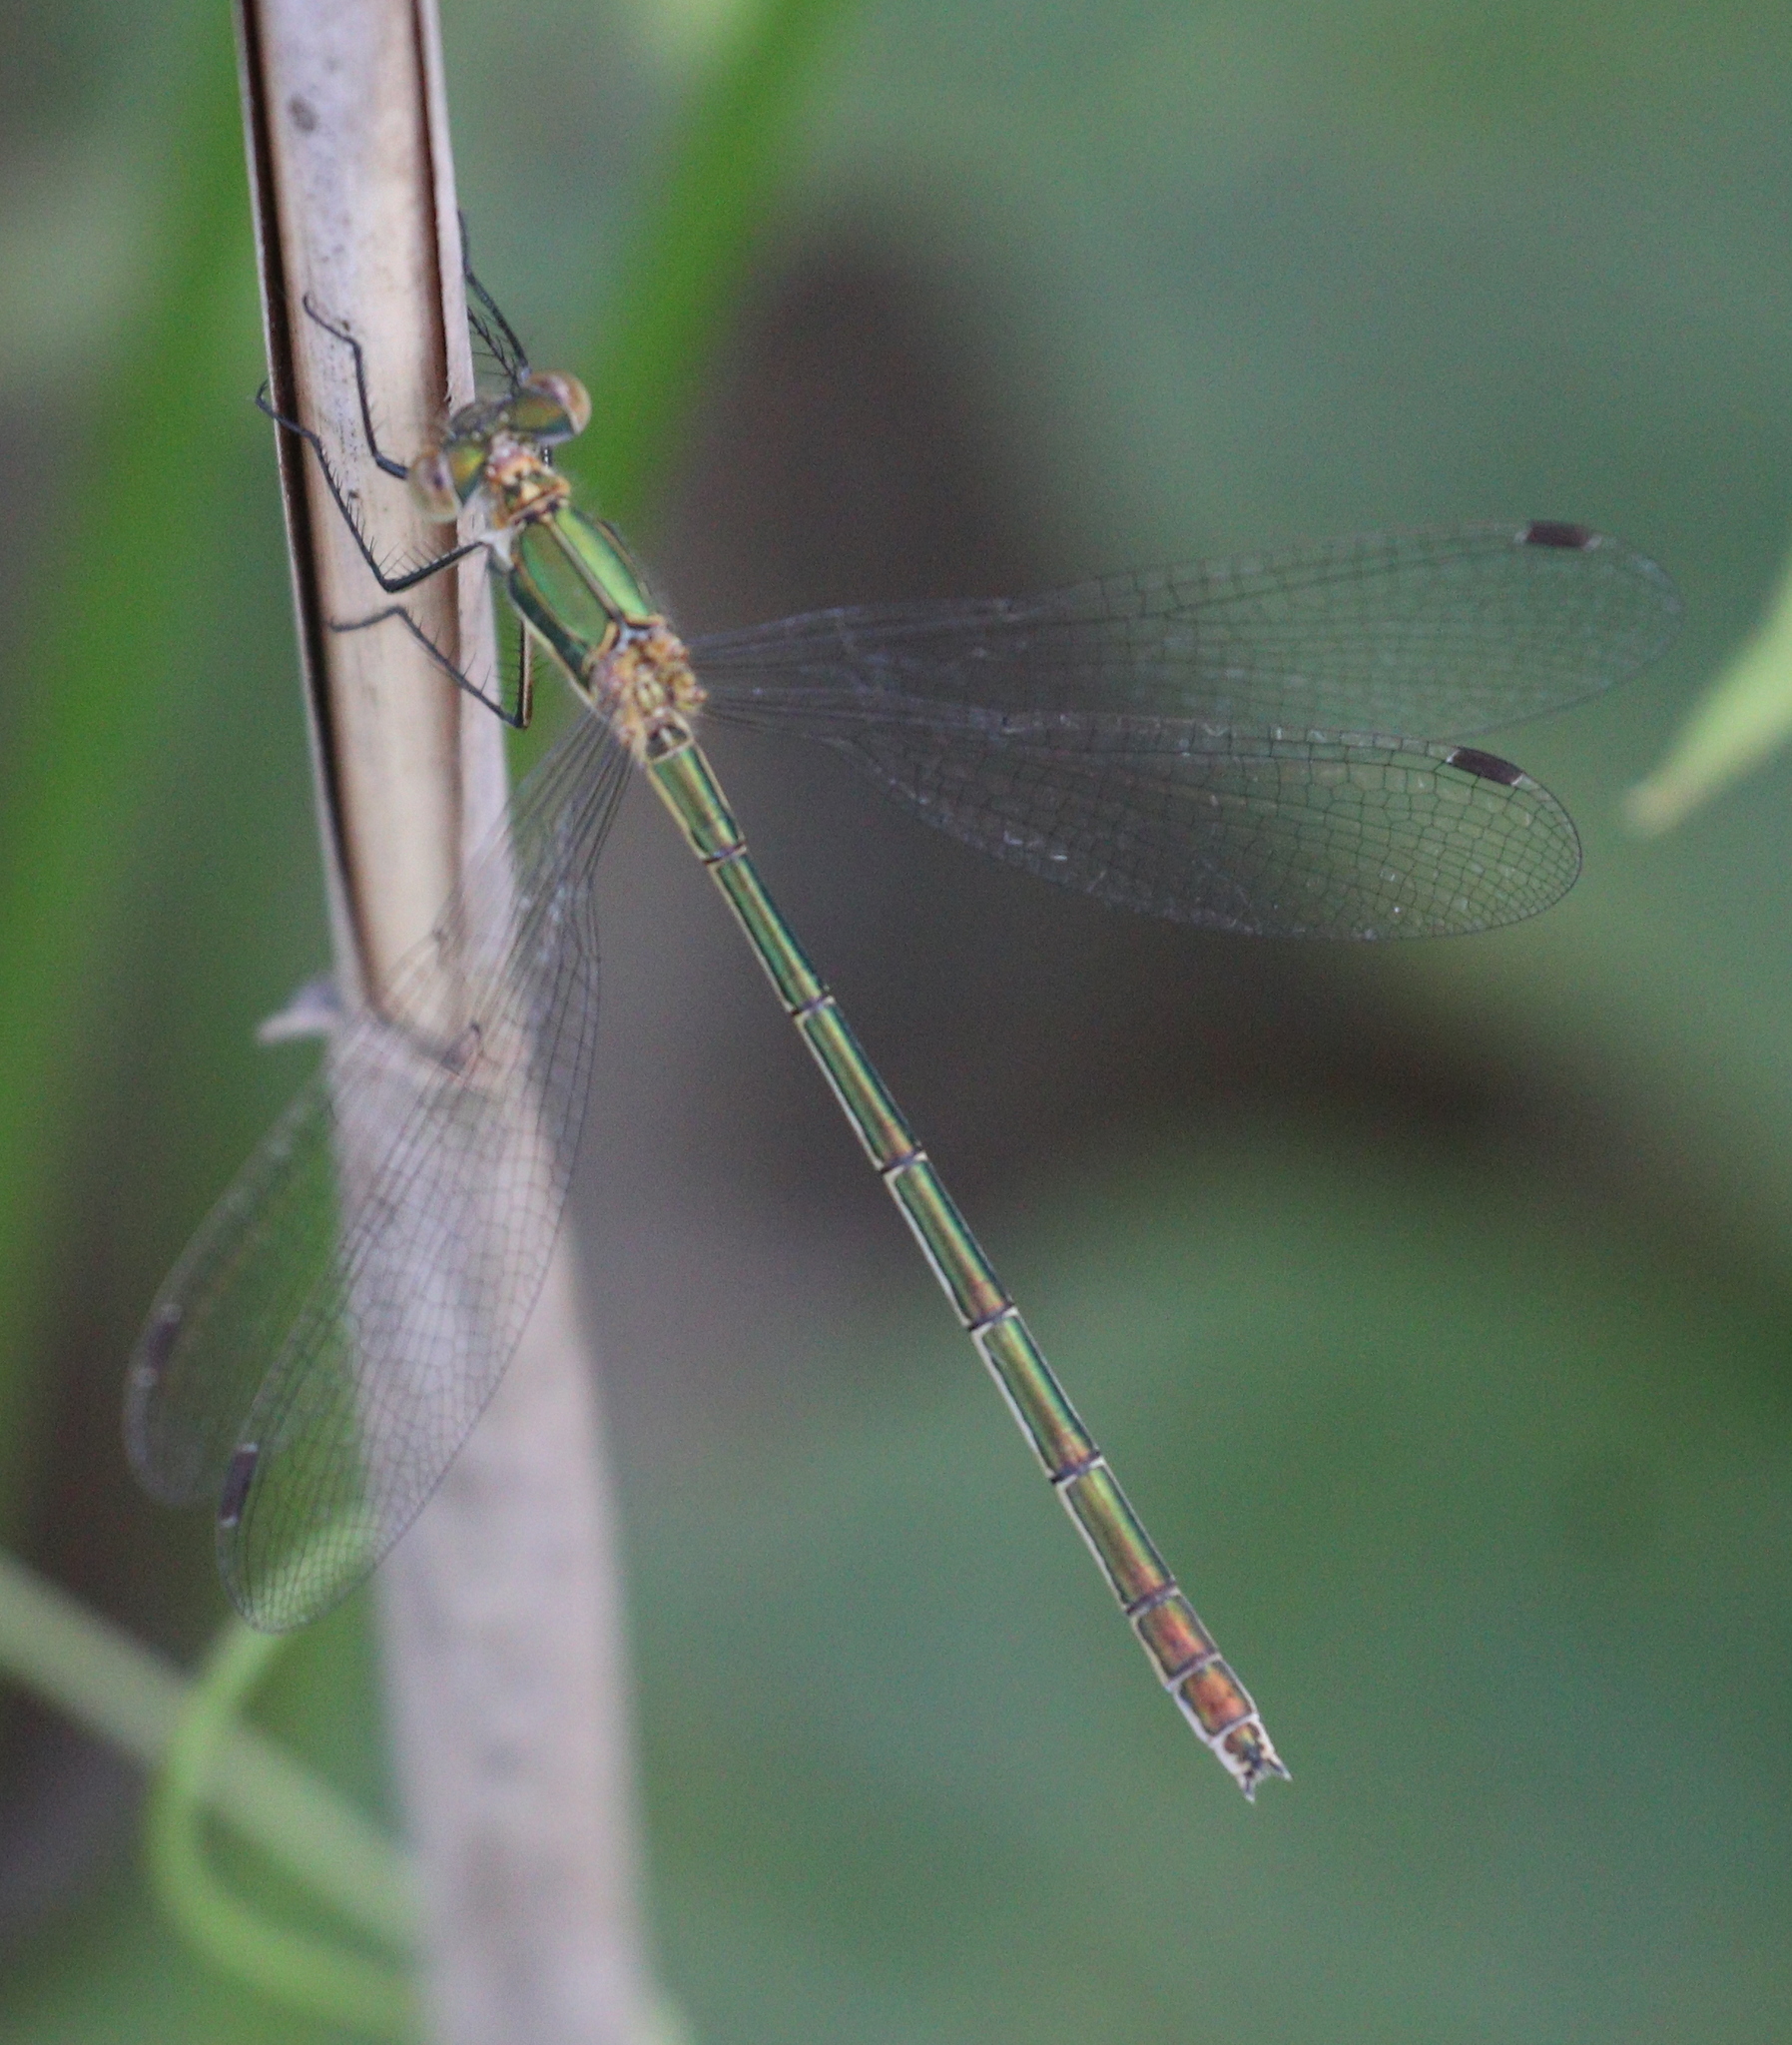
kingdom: Animalia
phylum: Arthropoda
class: Insecta
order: Odonata
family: Lestidae
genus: Lestes
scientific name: Lestes sponsa
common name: Common spreadwing
